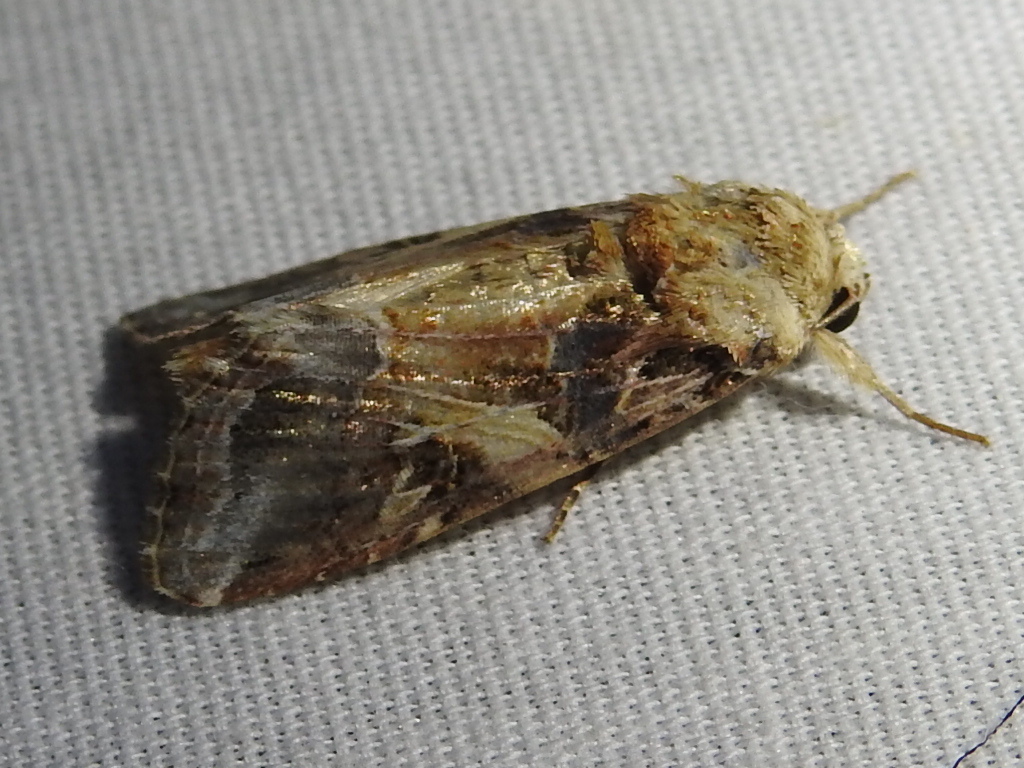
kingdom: Animalia
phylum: Arthropoda
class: Insecta
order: Lepidoptera
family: Noctuidae
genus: Spodoptera
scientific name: Spodoptera ornithogalli
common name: Yellow-striped armyworm
